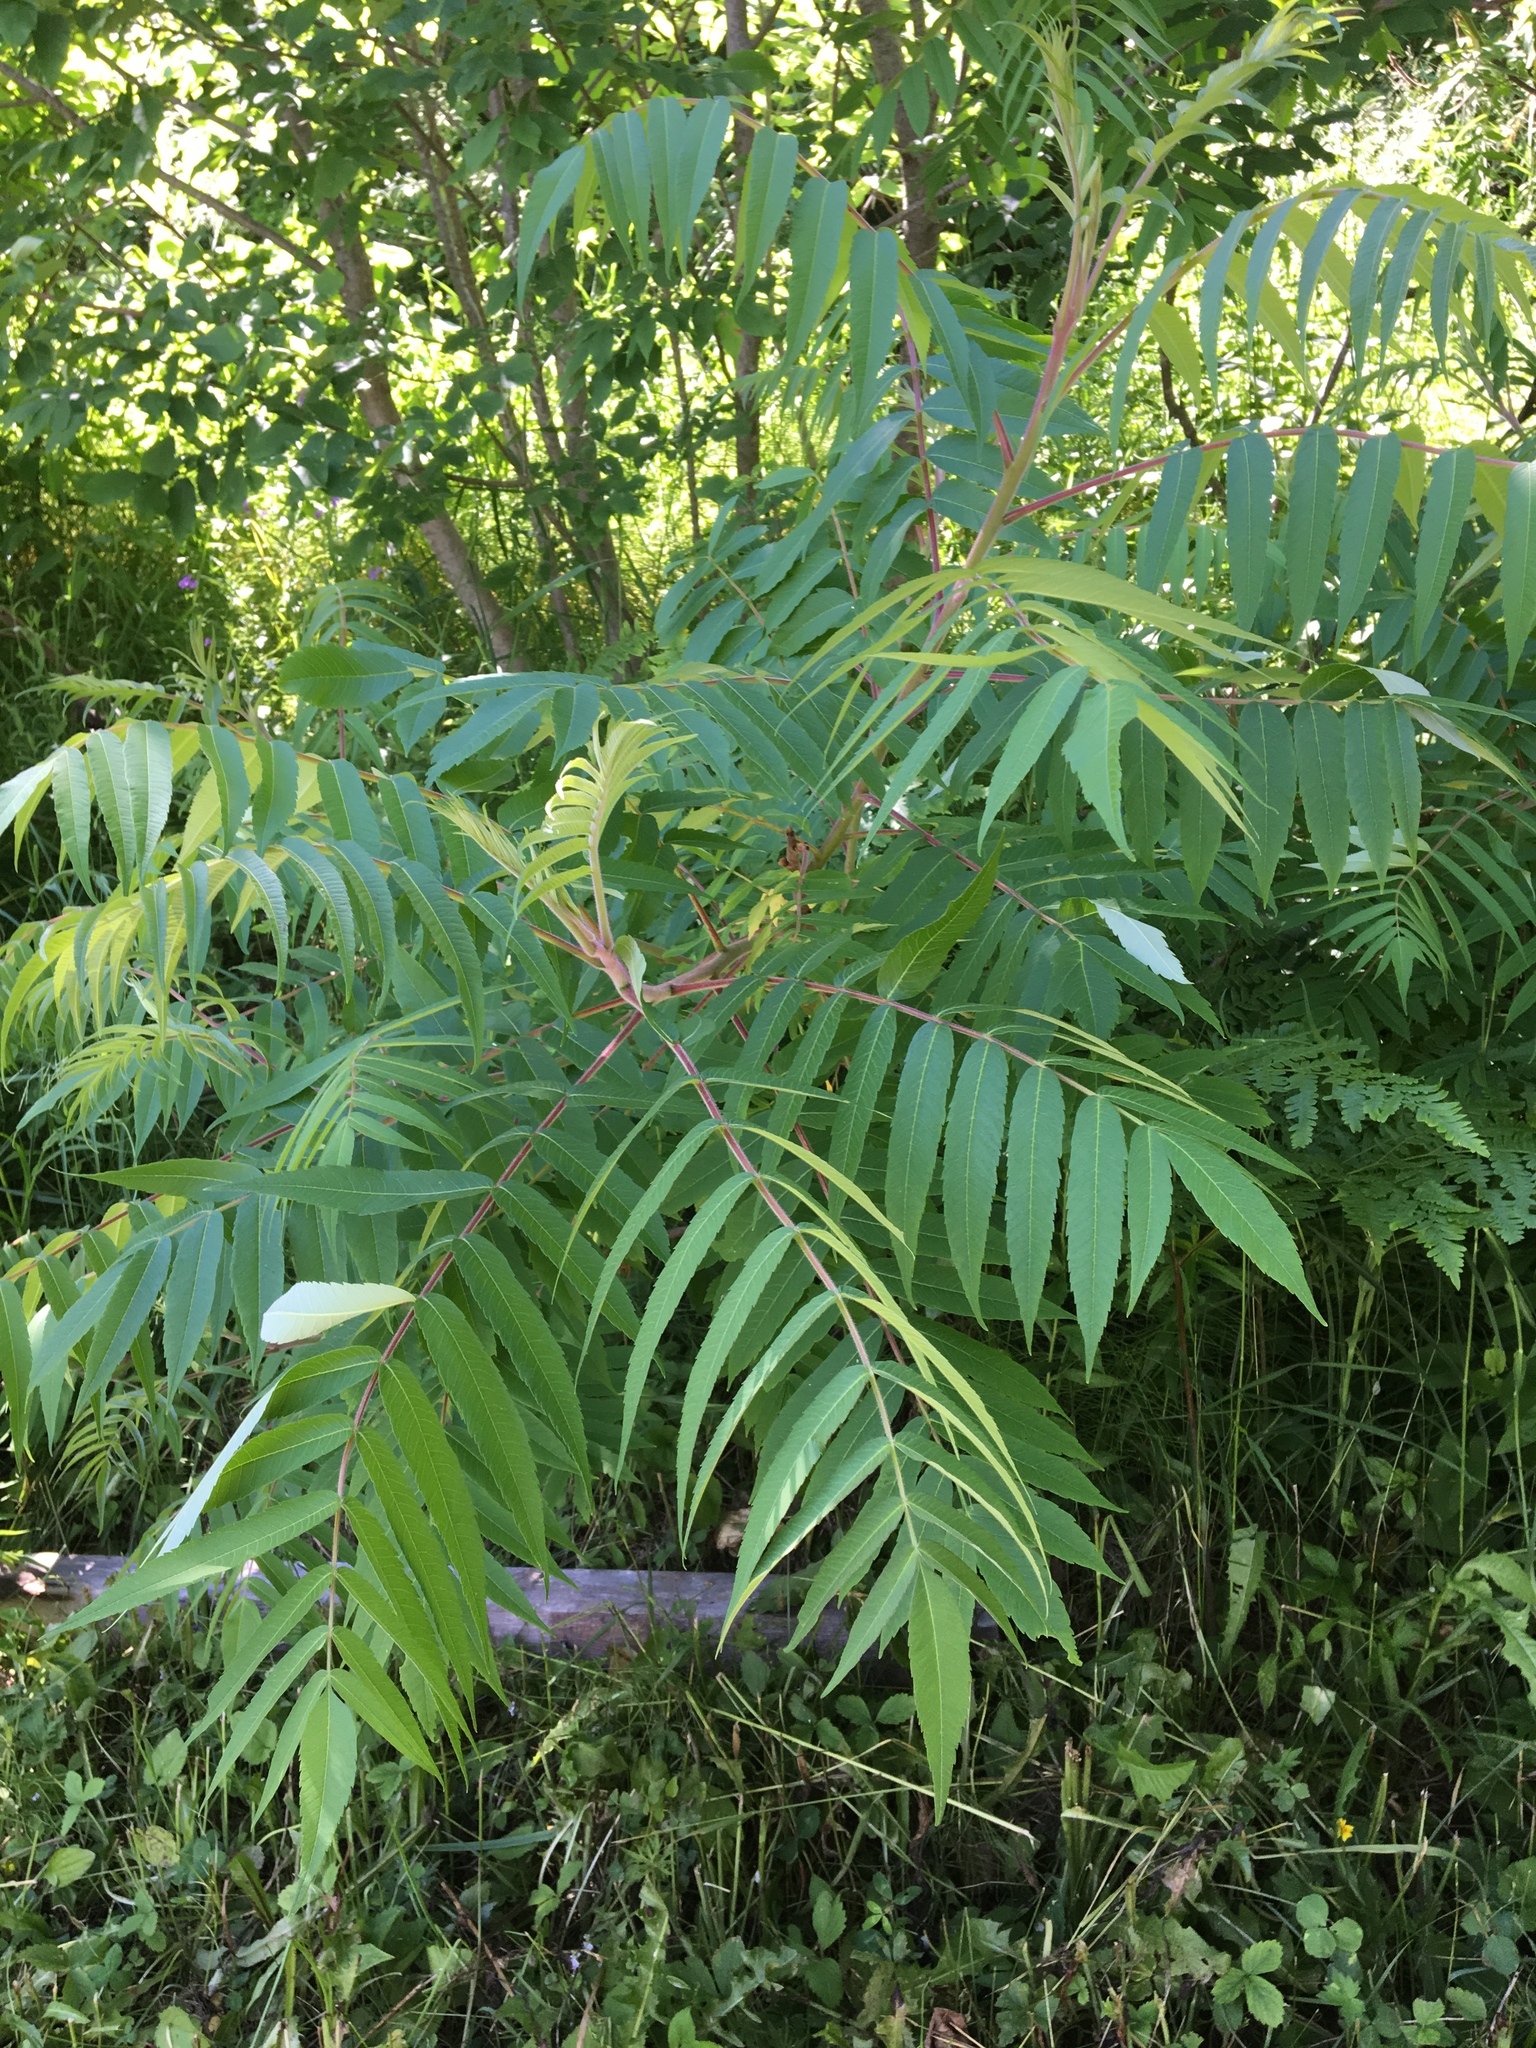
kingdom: Plantae
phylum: Tracheophyta
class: Magnoliopsida
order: Sapindales
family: Anacardiaceae
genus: Rhus
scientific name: Rhus typhina
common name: Staghorn sumac
